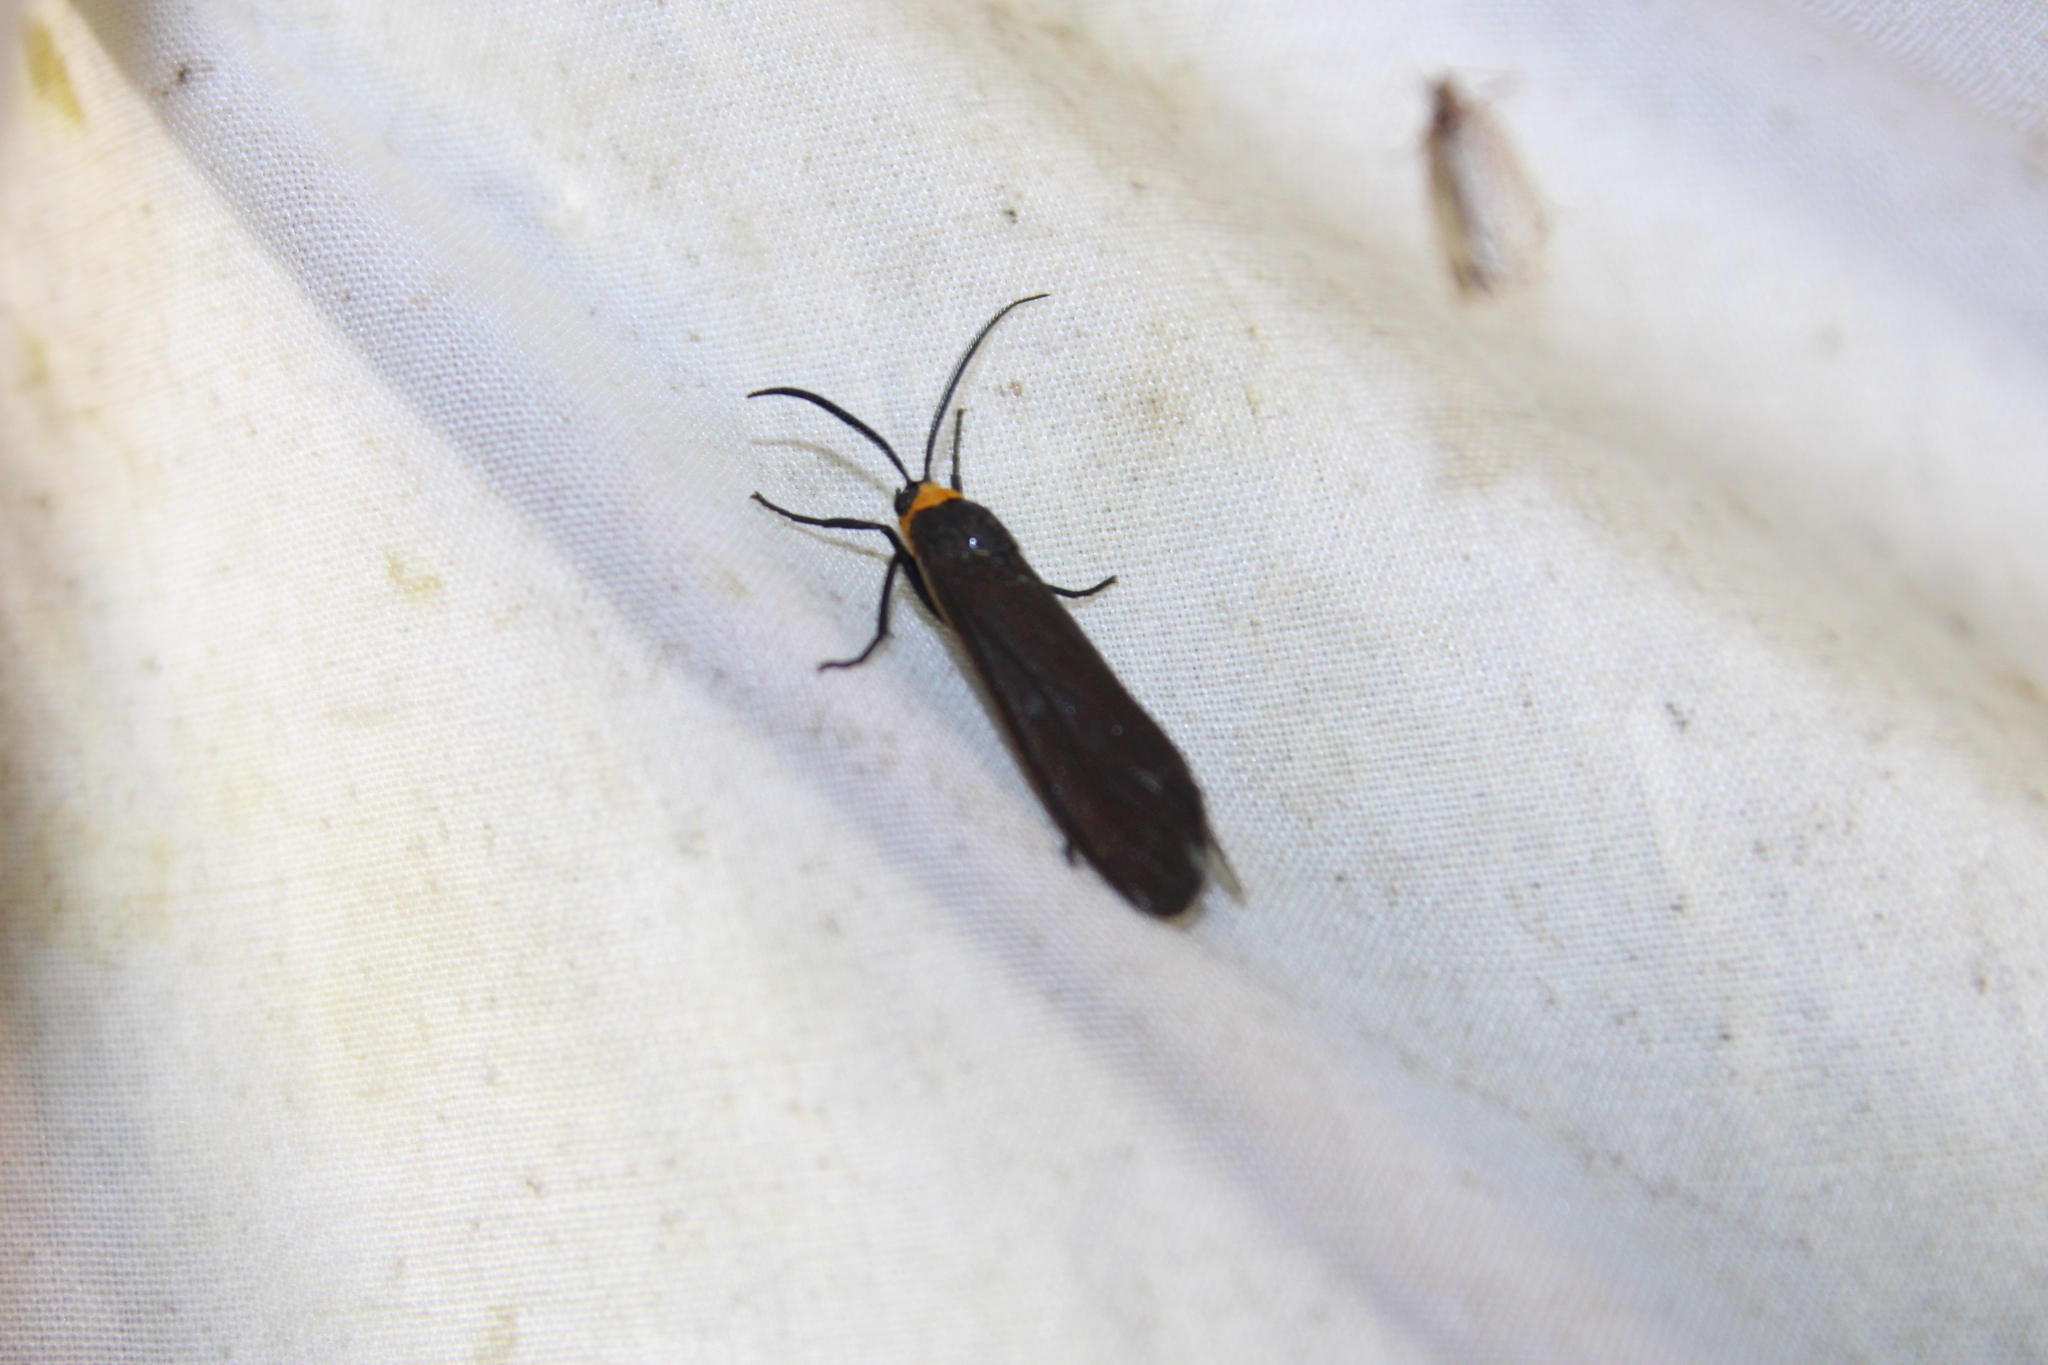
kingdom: Animalia
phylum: Arthropoda
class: Insecta
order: Lepidoptera
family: Erebidae
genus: Cisseps
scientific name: Cisseps fulvicollis
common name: Yellow-collared scape moth
